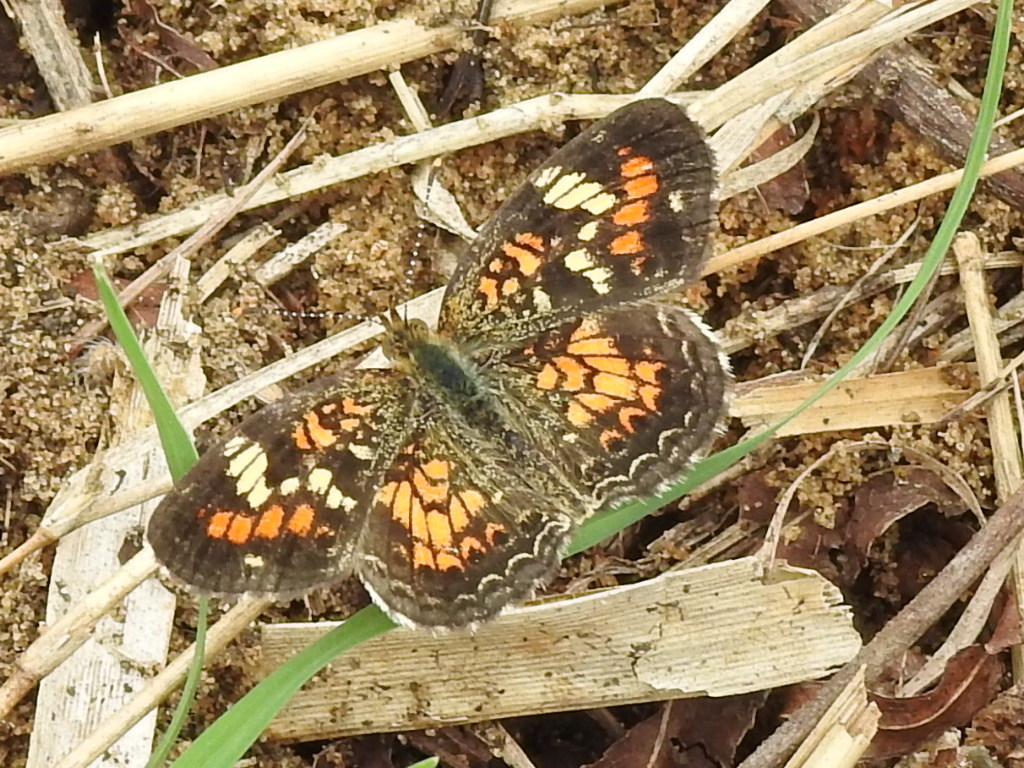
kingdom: Animalia
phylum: Arthropoda
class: Insecta
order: Lepidoptera
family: Nymphalidae
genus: Phyciodes
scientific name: Phyciodes phaon
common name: Phaon crescent
